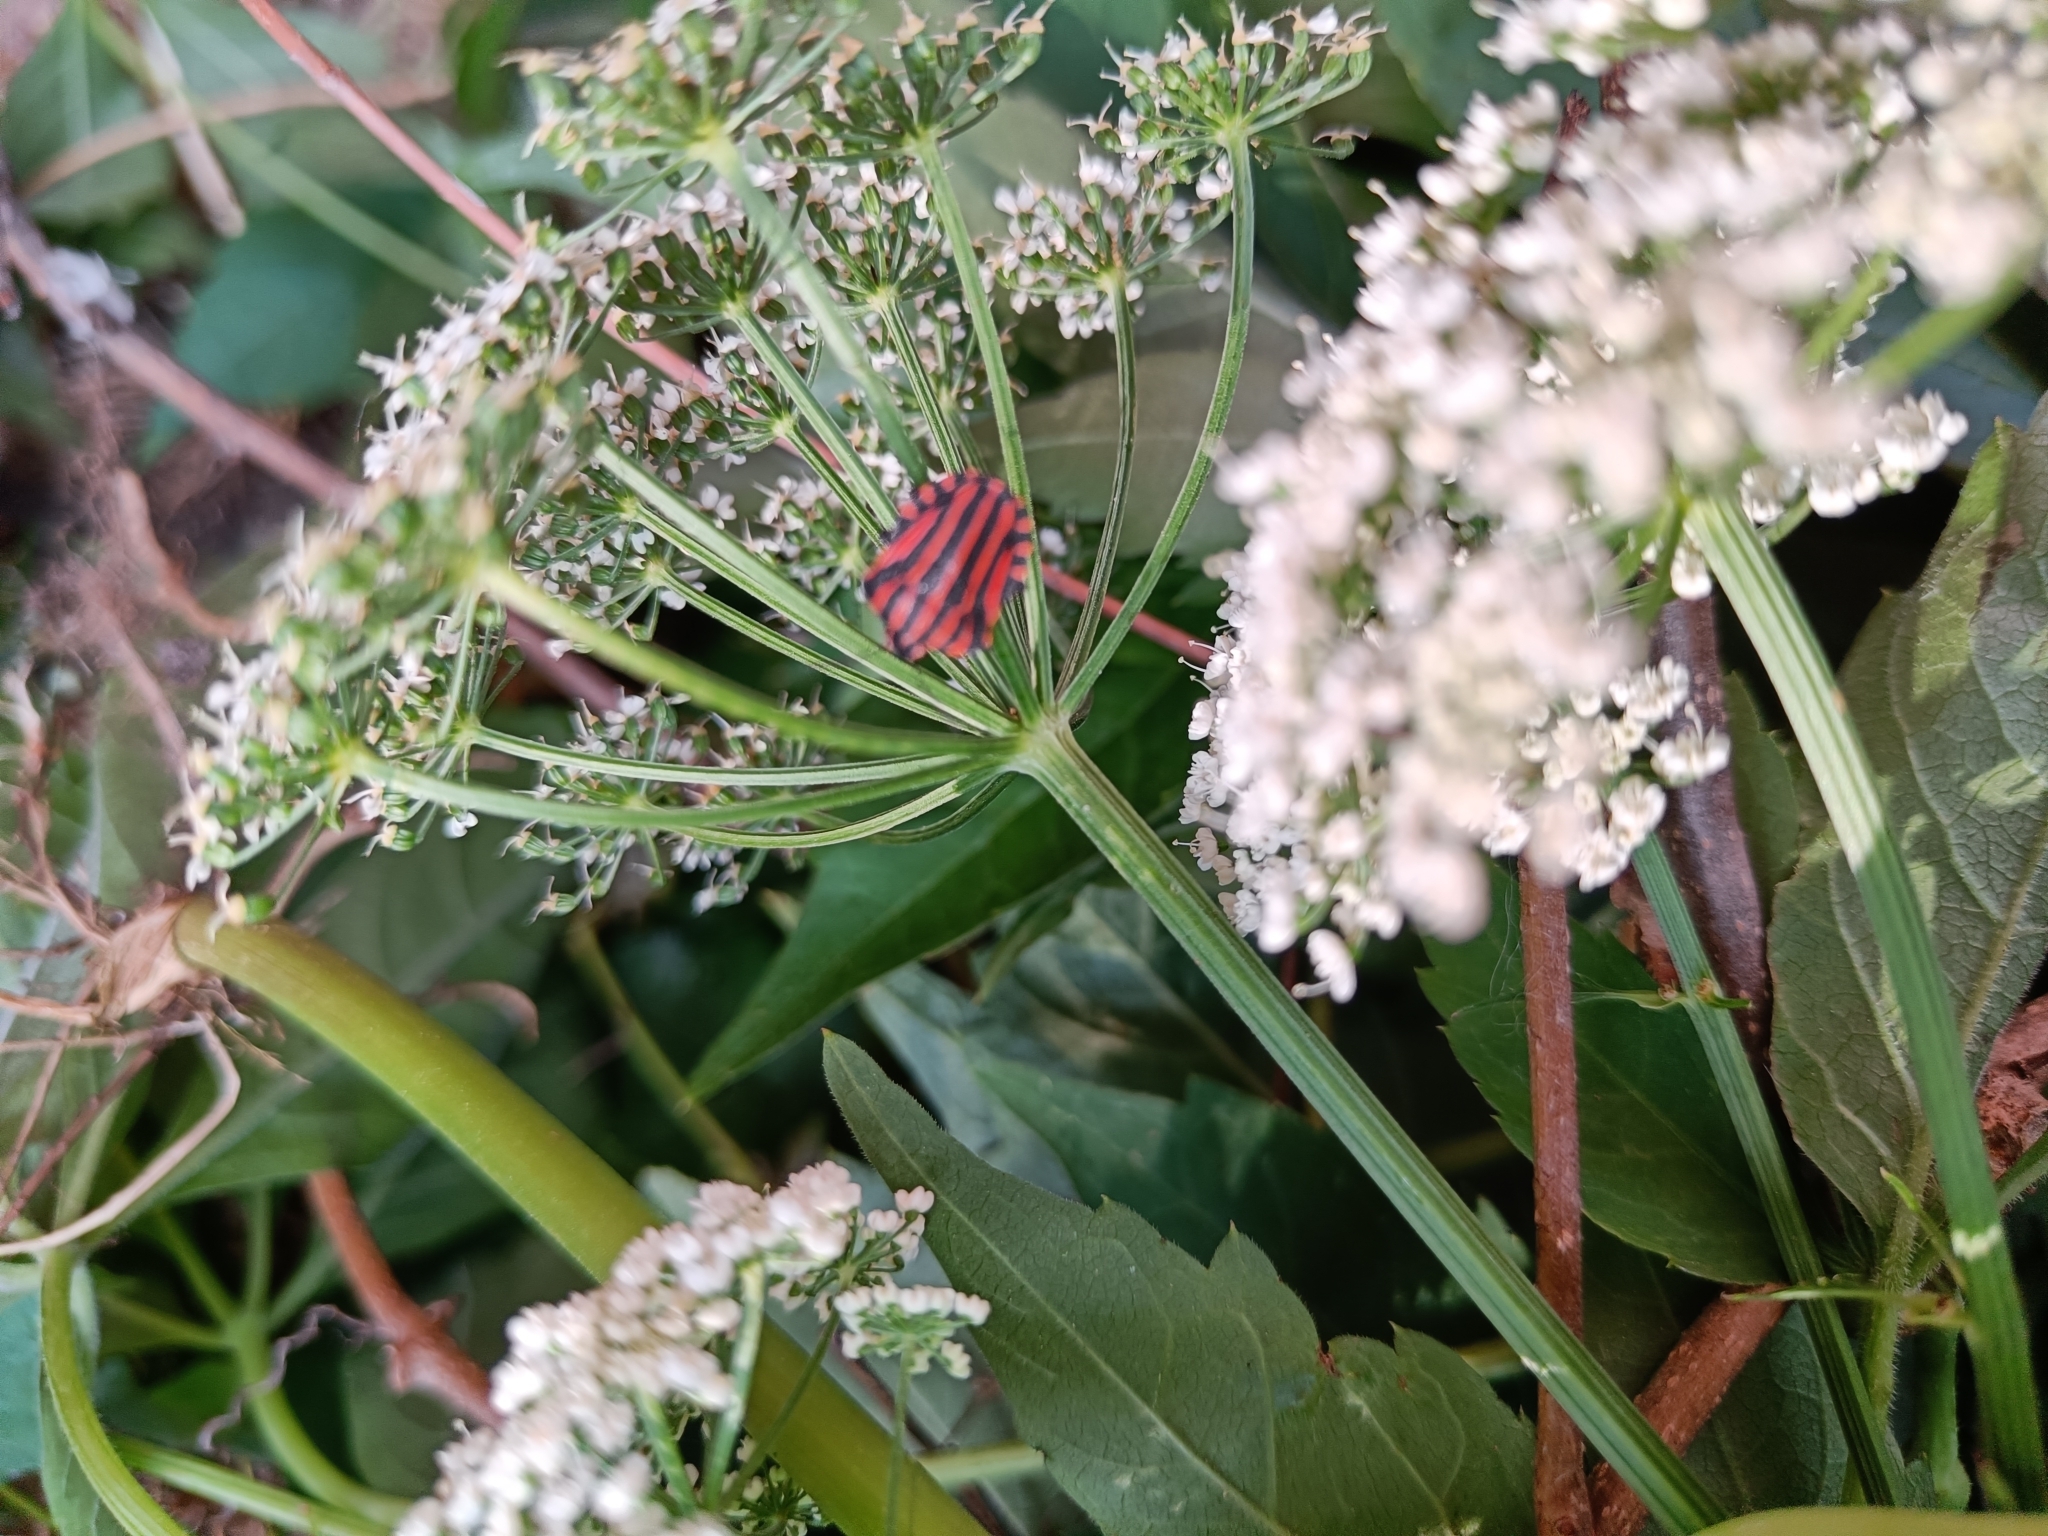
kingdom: Animalia
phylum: Arthropoda
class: Insecta
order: Hemiptera
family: Pentatomidae
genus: Graphosoma
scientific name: Graphosoma italicum
